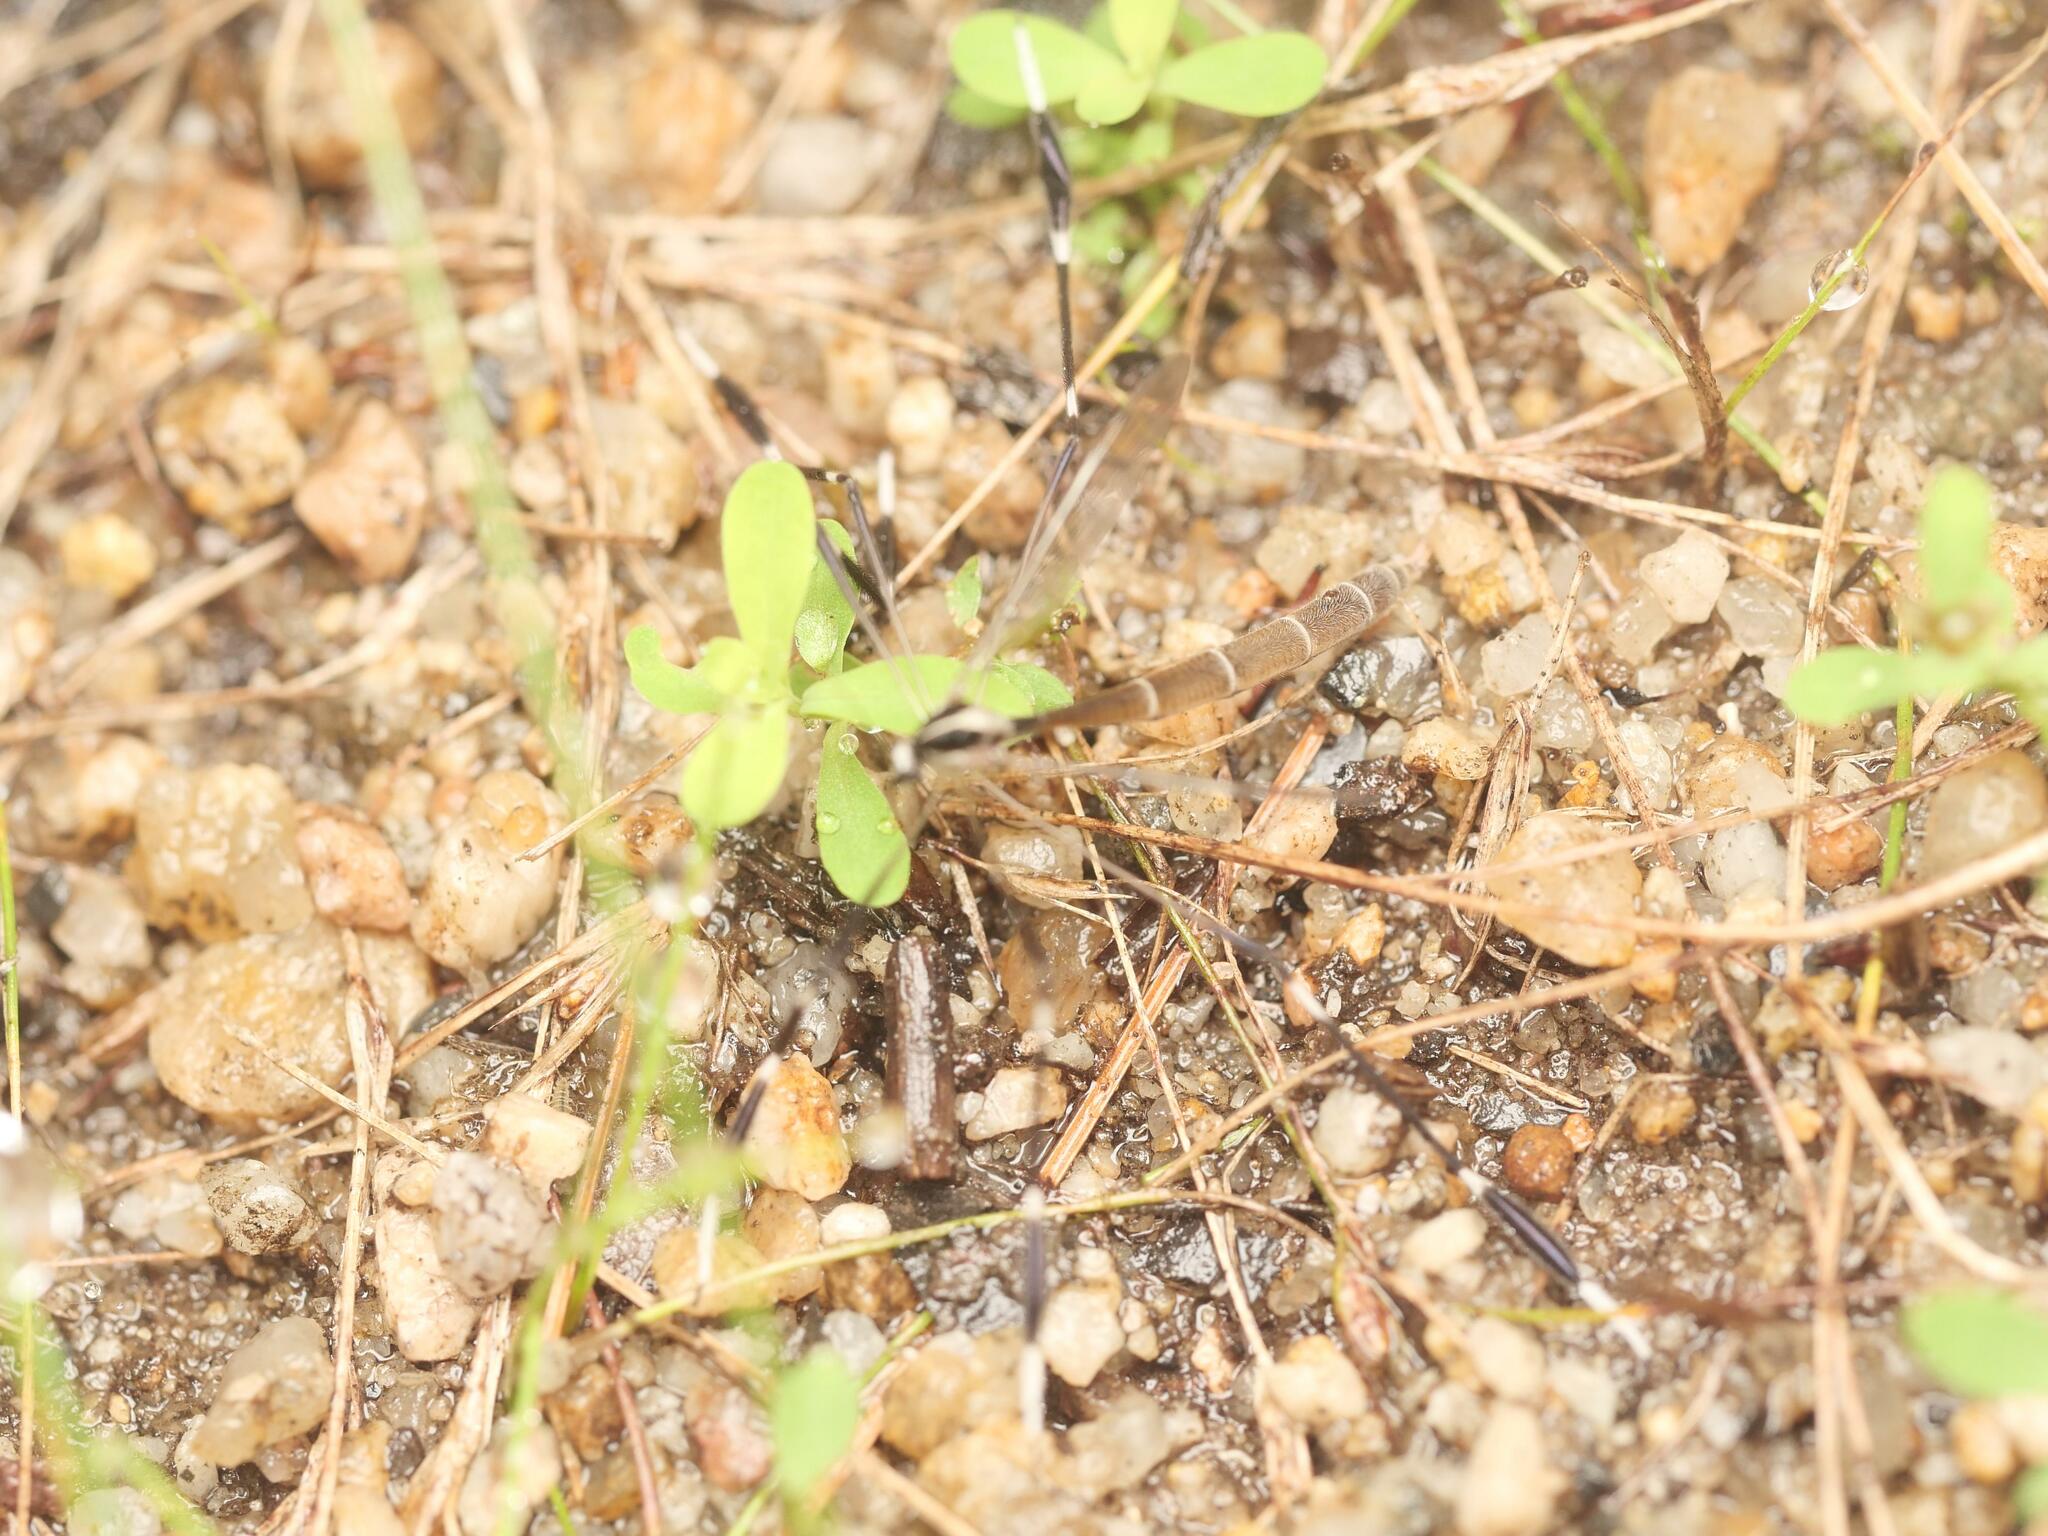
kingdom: Animalia
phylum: Arthropoda
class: Insecta
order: Diptera
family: Ptychopteridae
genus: Bittacomorpha
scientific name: Bittacomorpha clavipes
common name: Eastern phantom crane fly
